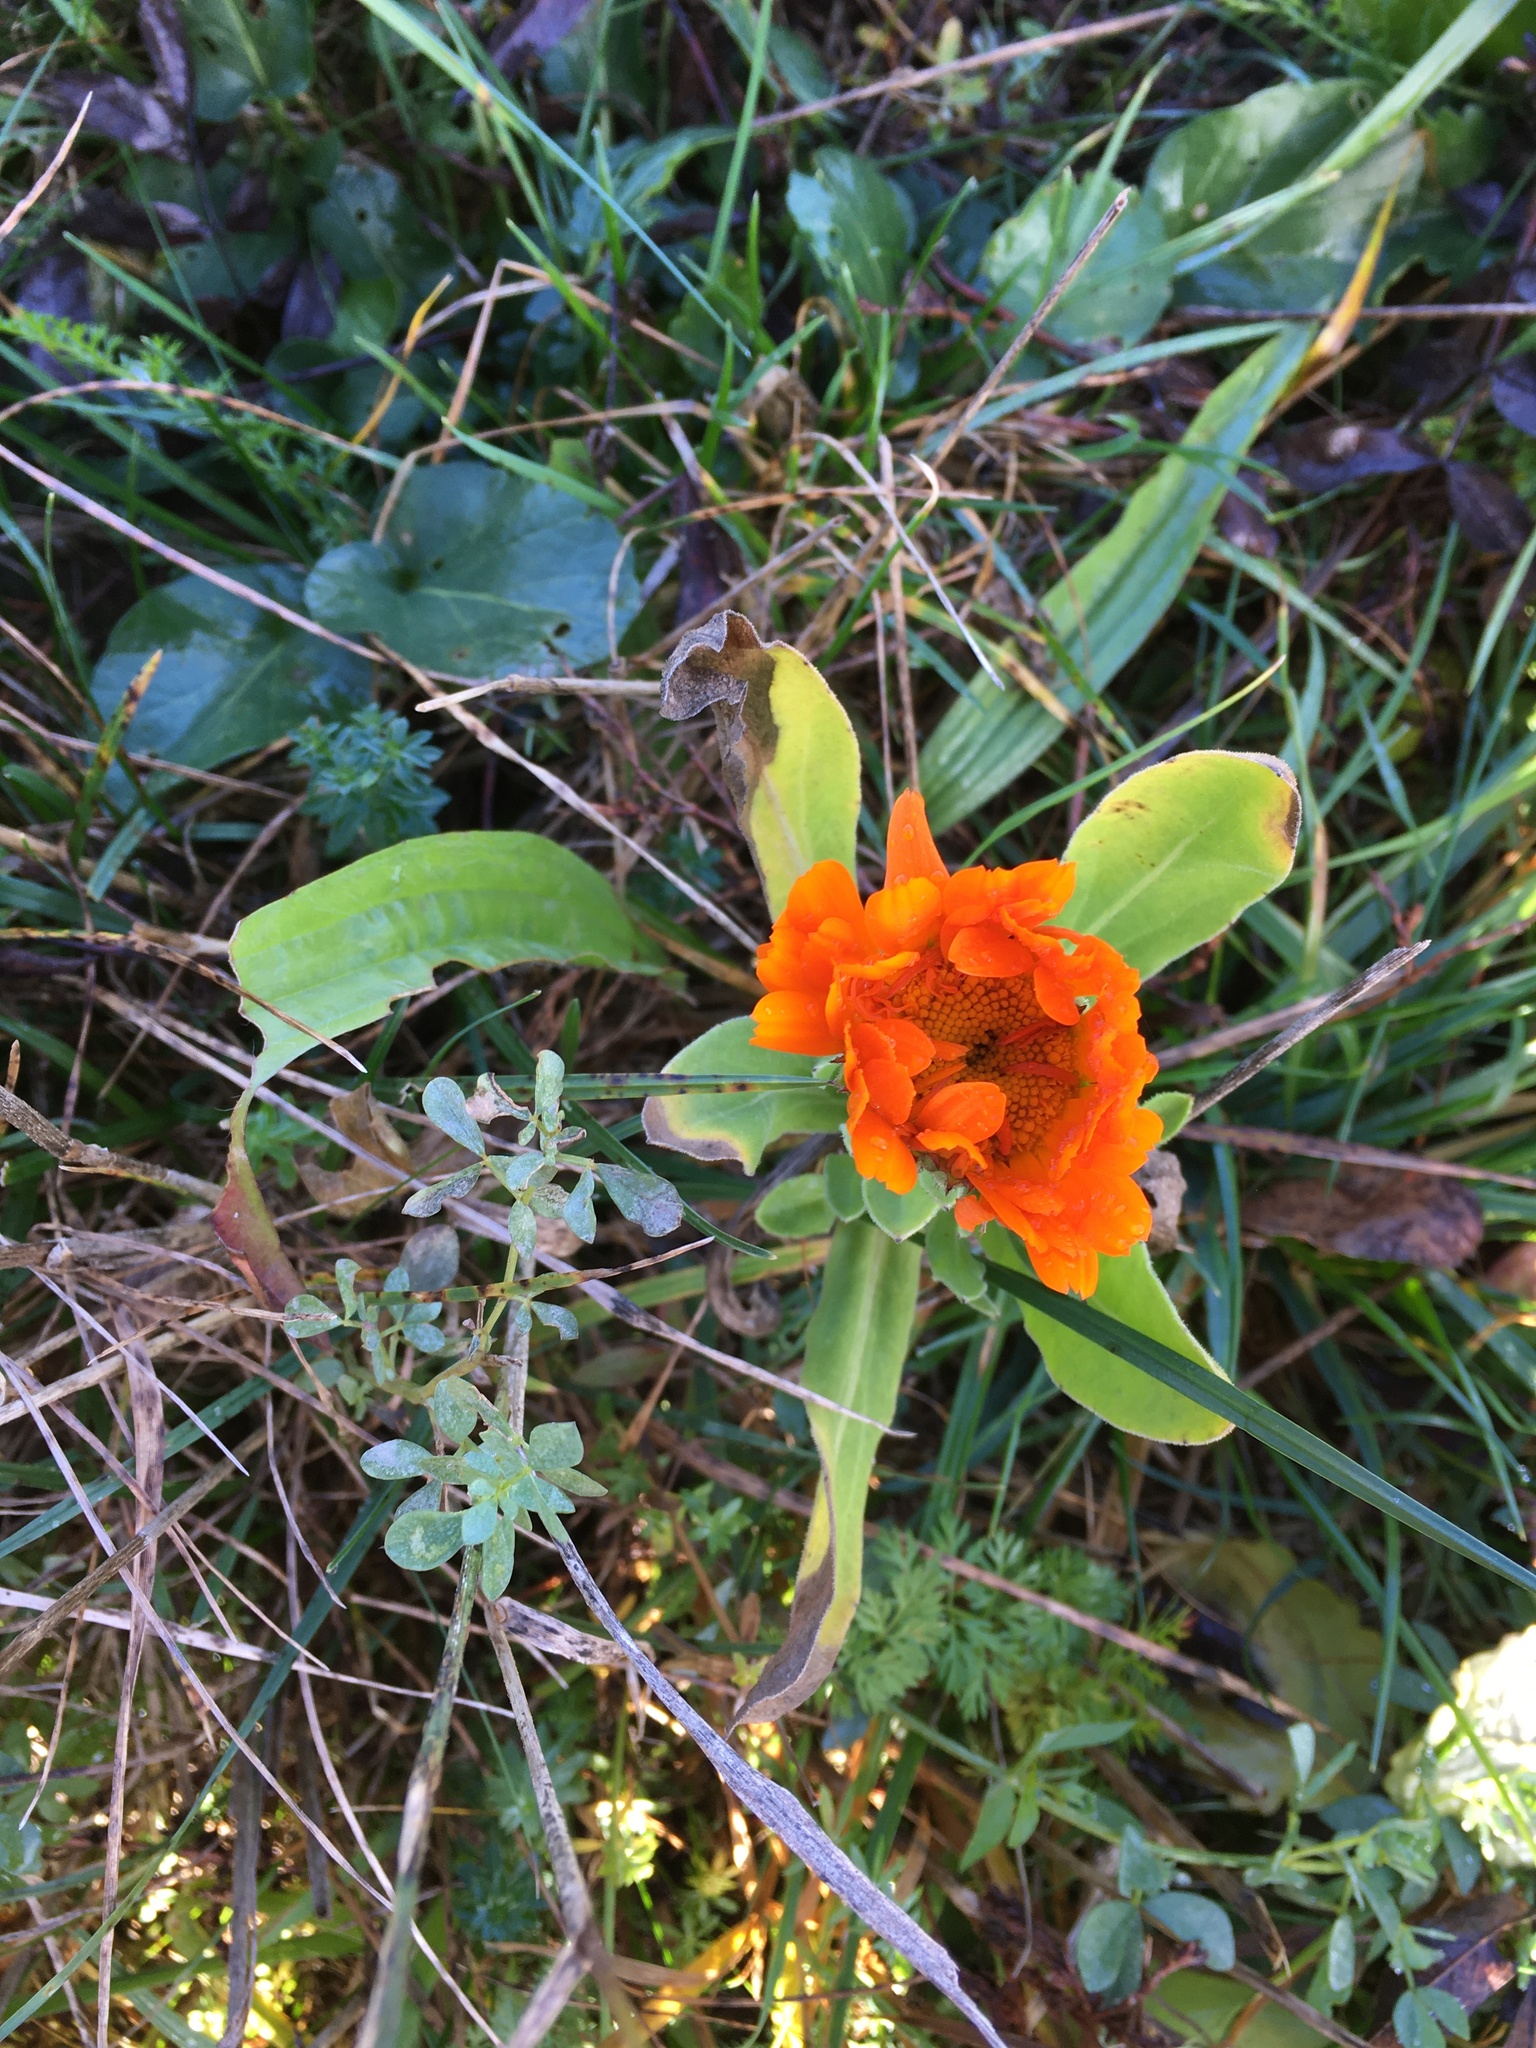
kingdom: Plantae
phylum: Tracheophyta
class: Magnoliopsida
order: Asterales
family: Asteraceae
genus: Calendula
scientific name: Calendula officinalis
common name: Pot marigold
